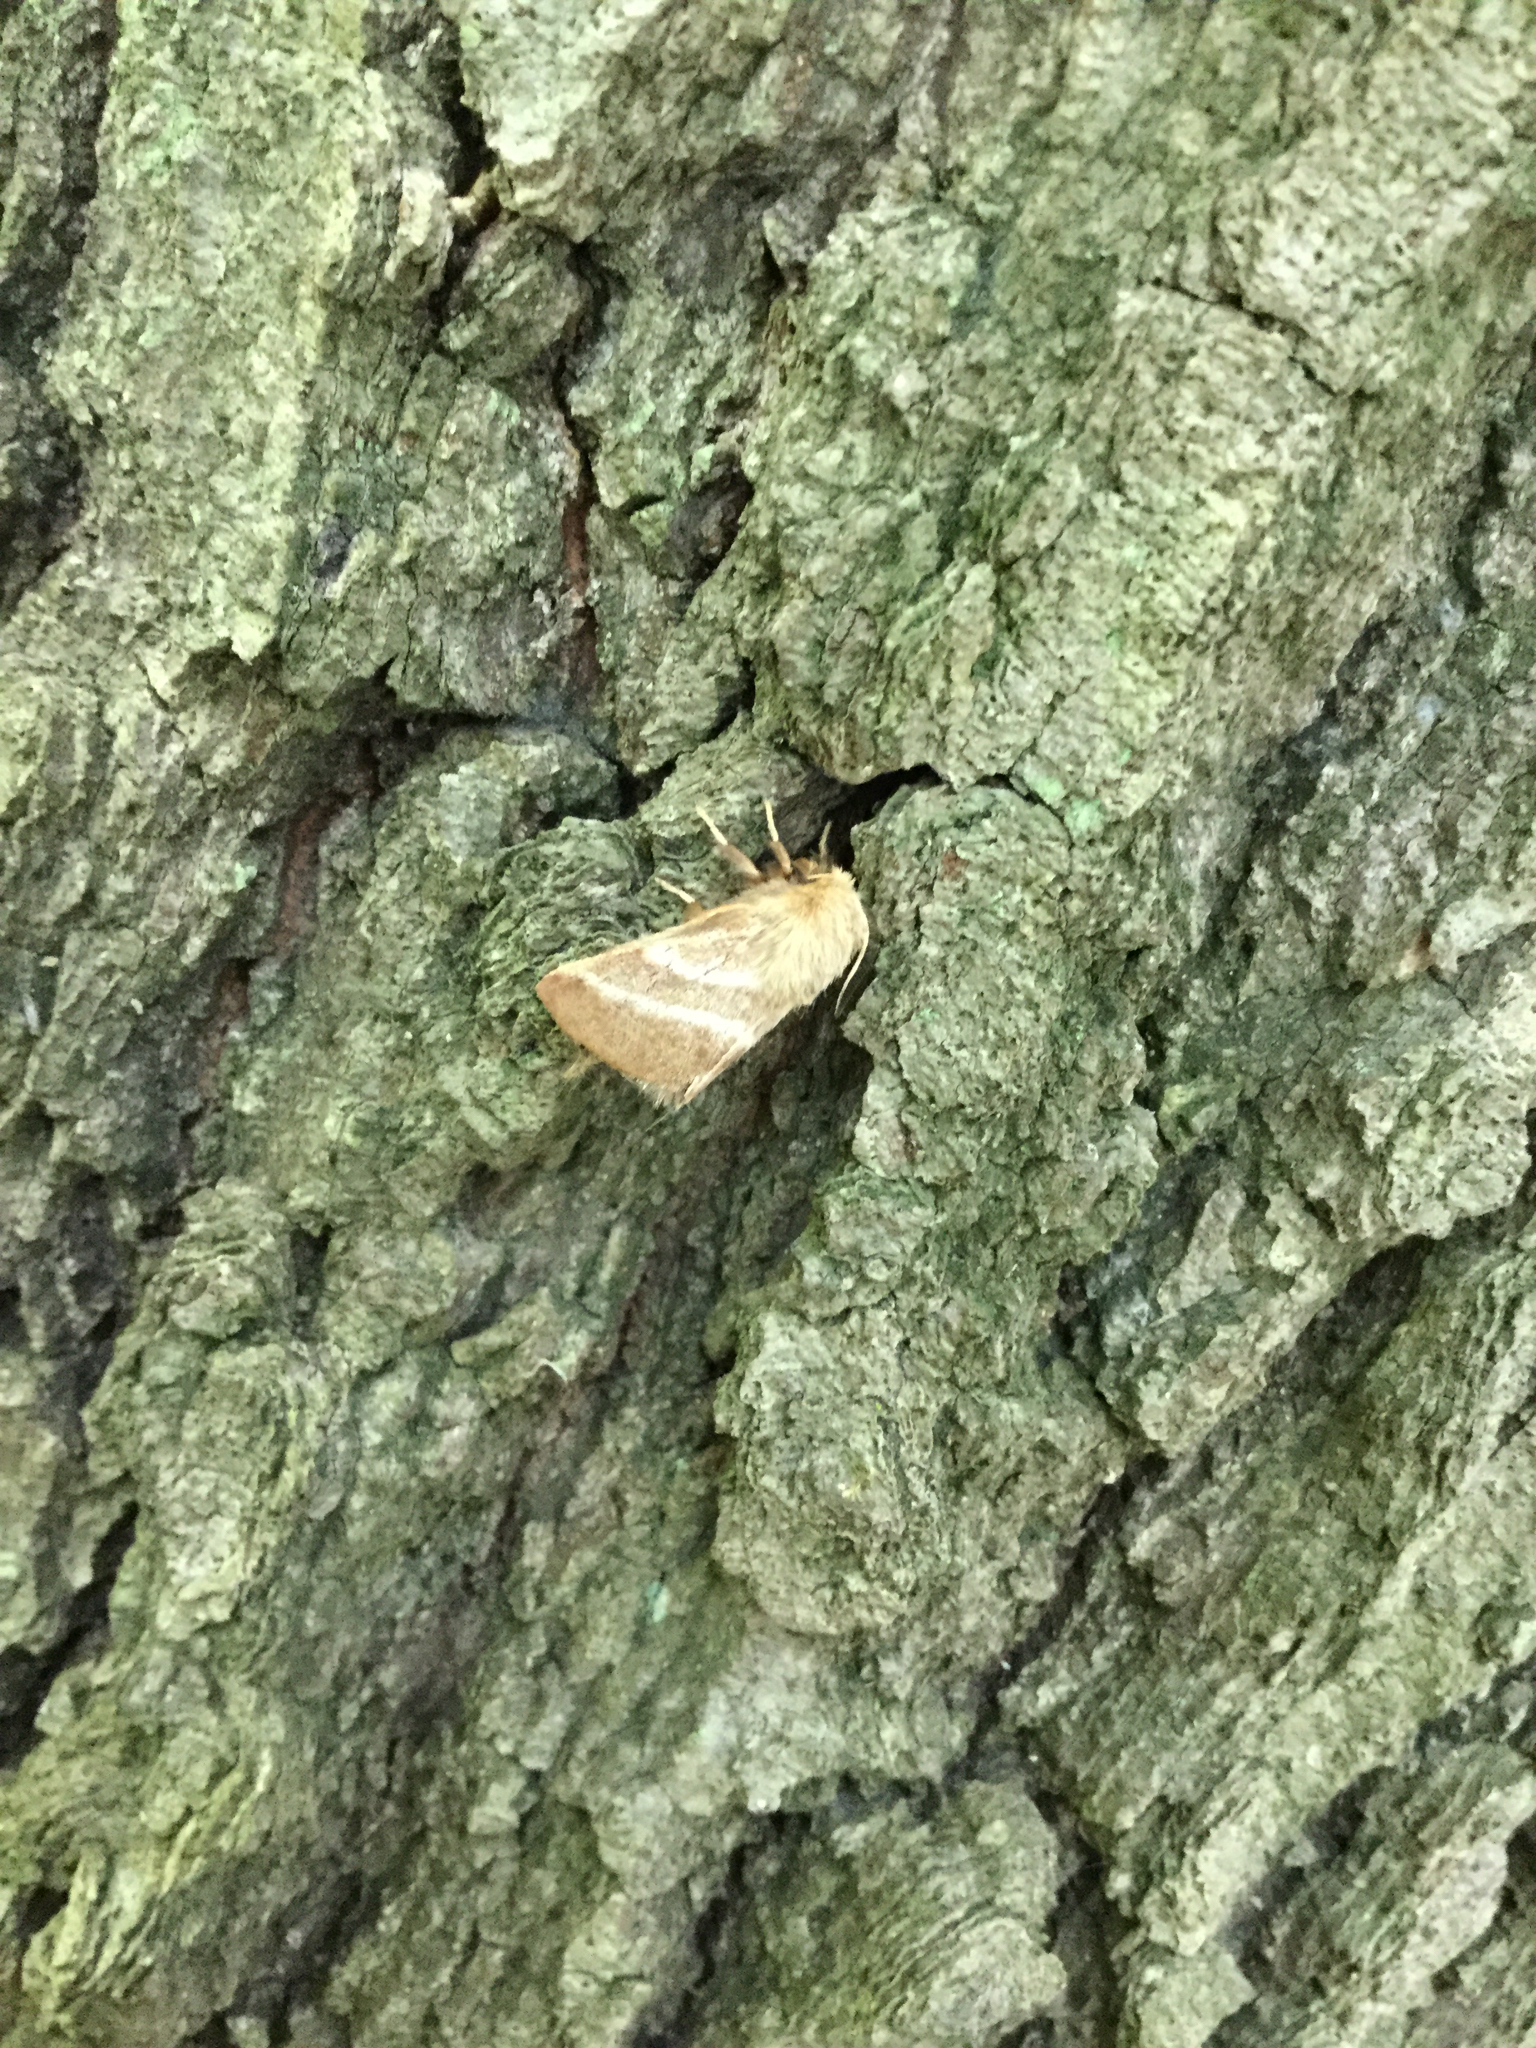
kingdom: Animalia
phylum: Arthropoda
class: Insecta
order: Lepidoptera
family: Lasiocampidae
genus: Malacosoma
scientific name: Malacosoma americana
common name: Eastern tent caterpillar moth
